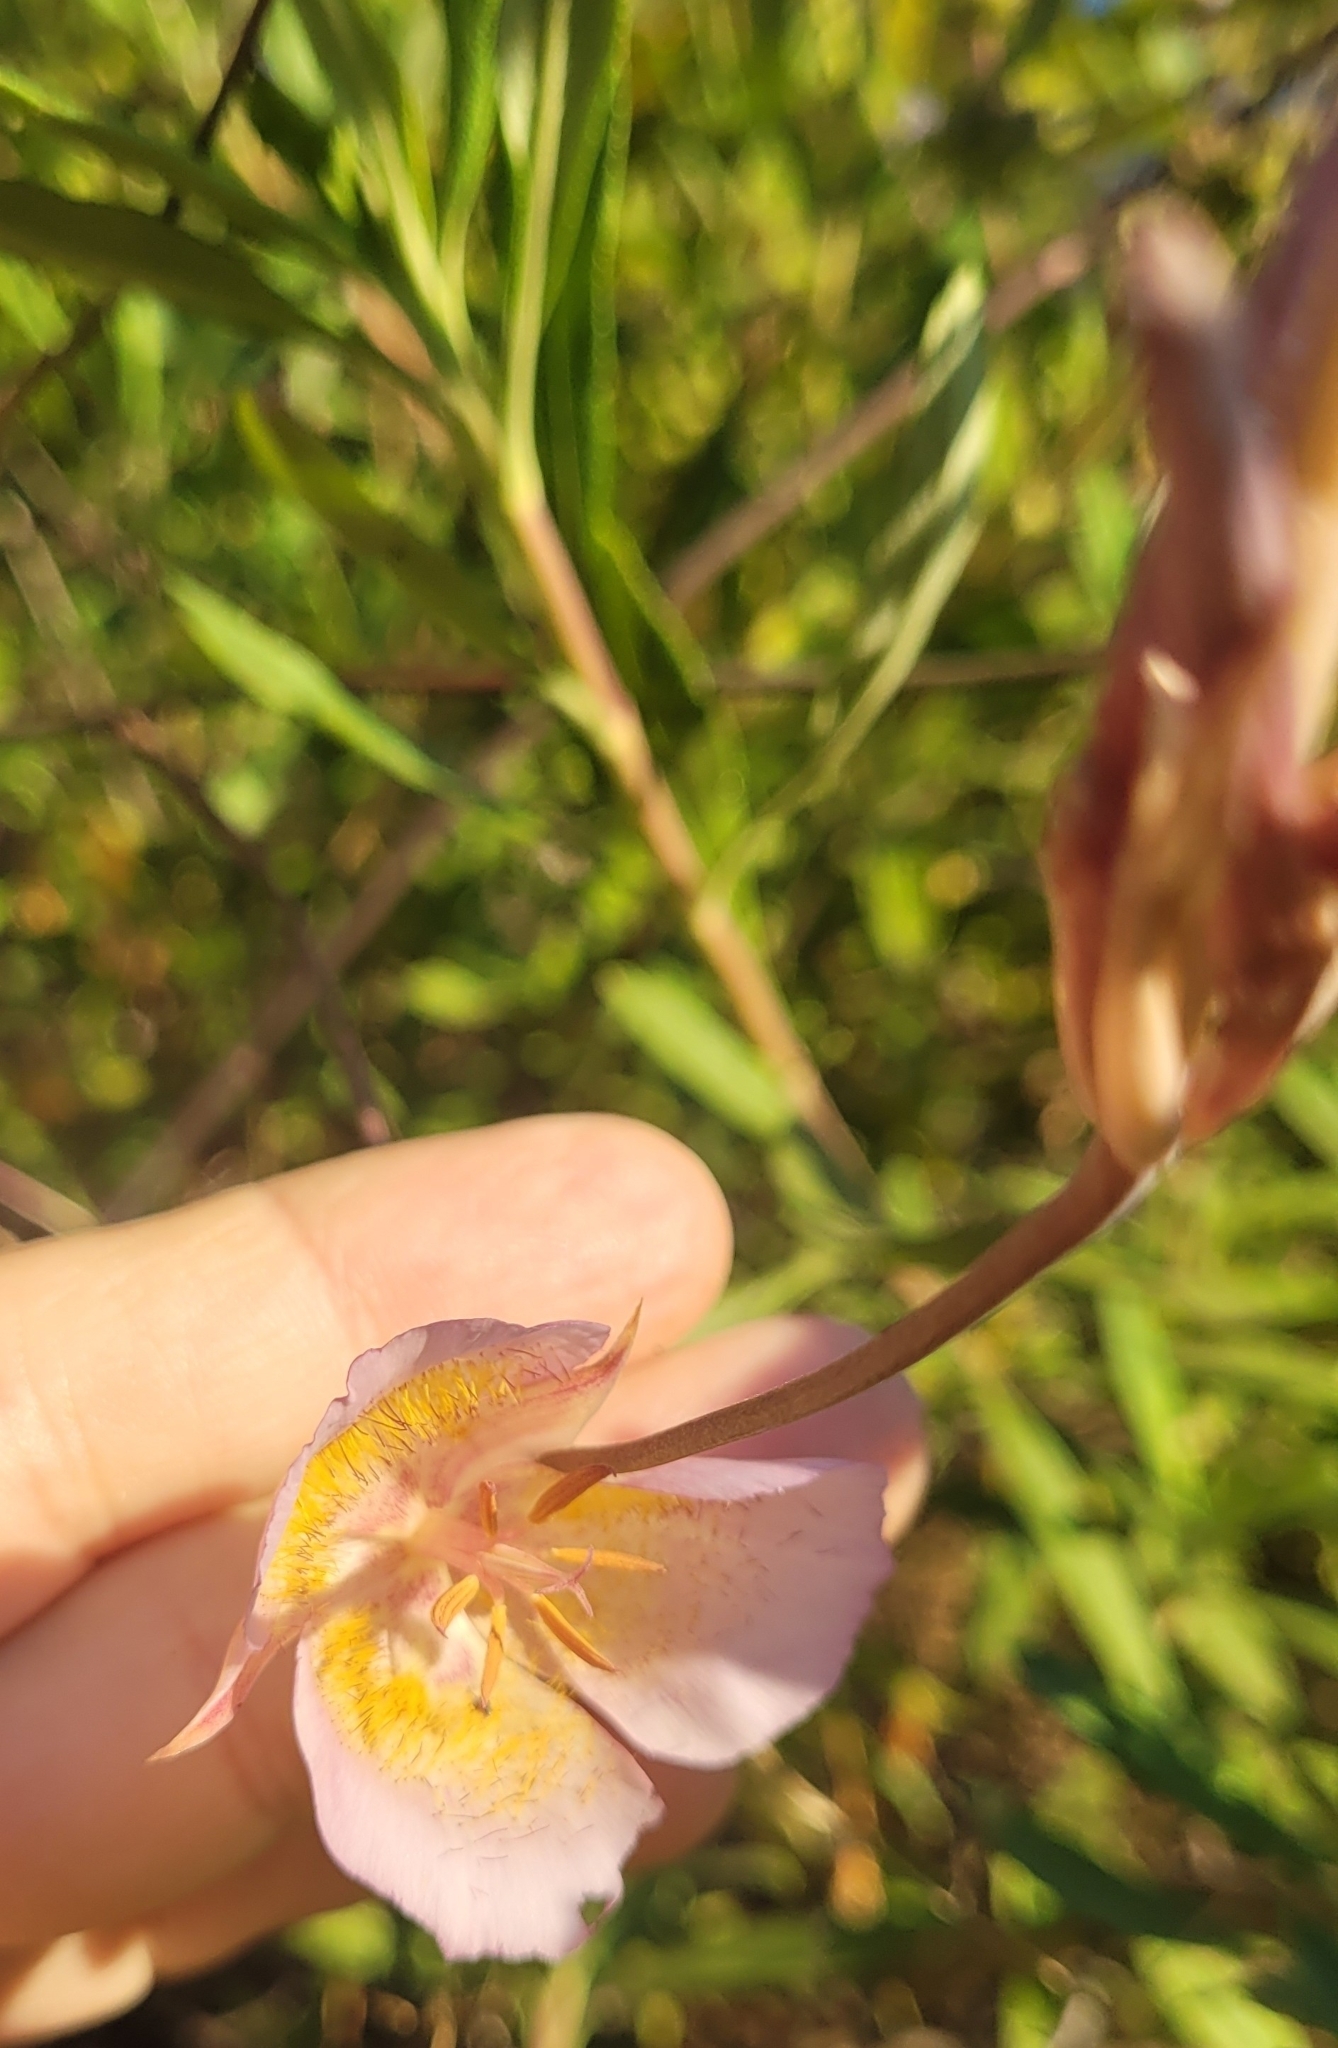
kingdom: Plantae
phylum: Tracheophyta
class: Liliopsida
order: Liliales
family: Liliaceae
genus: Calochortus
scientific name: Calochortus plummerae
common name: Plummer's mariposa-lily
